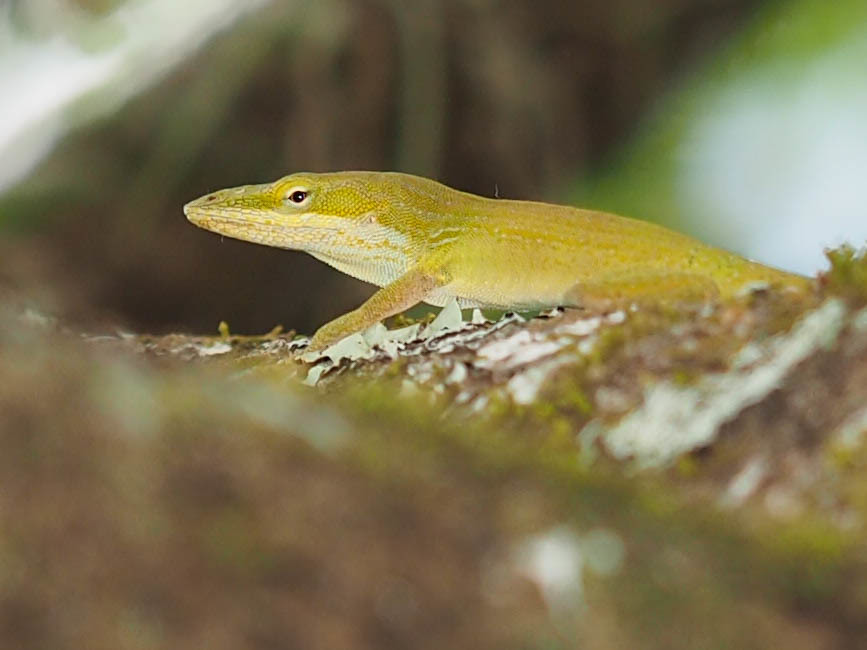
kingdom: Animalia
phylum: Chordata
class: Squamata
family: Dactyloidae
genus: Anolis
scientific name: Anolis carolinensis
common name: Green anole
